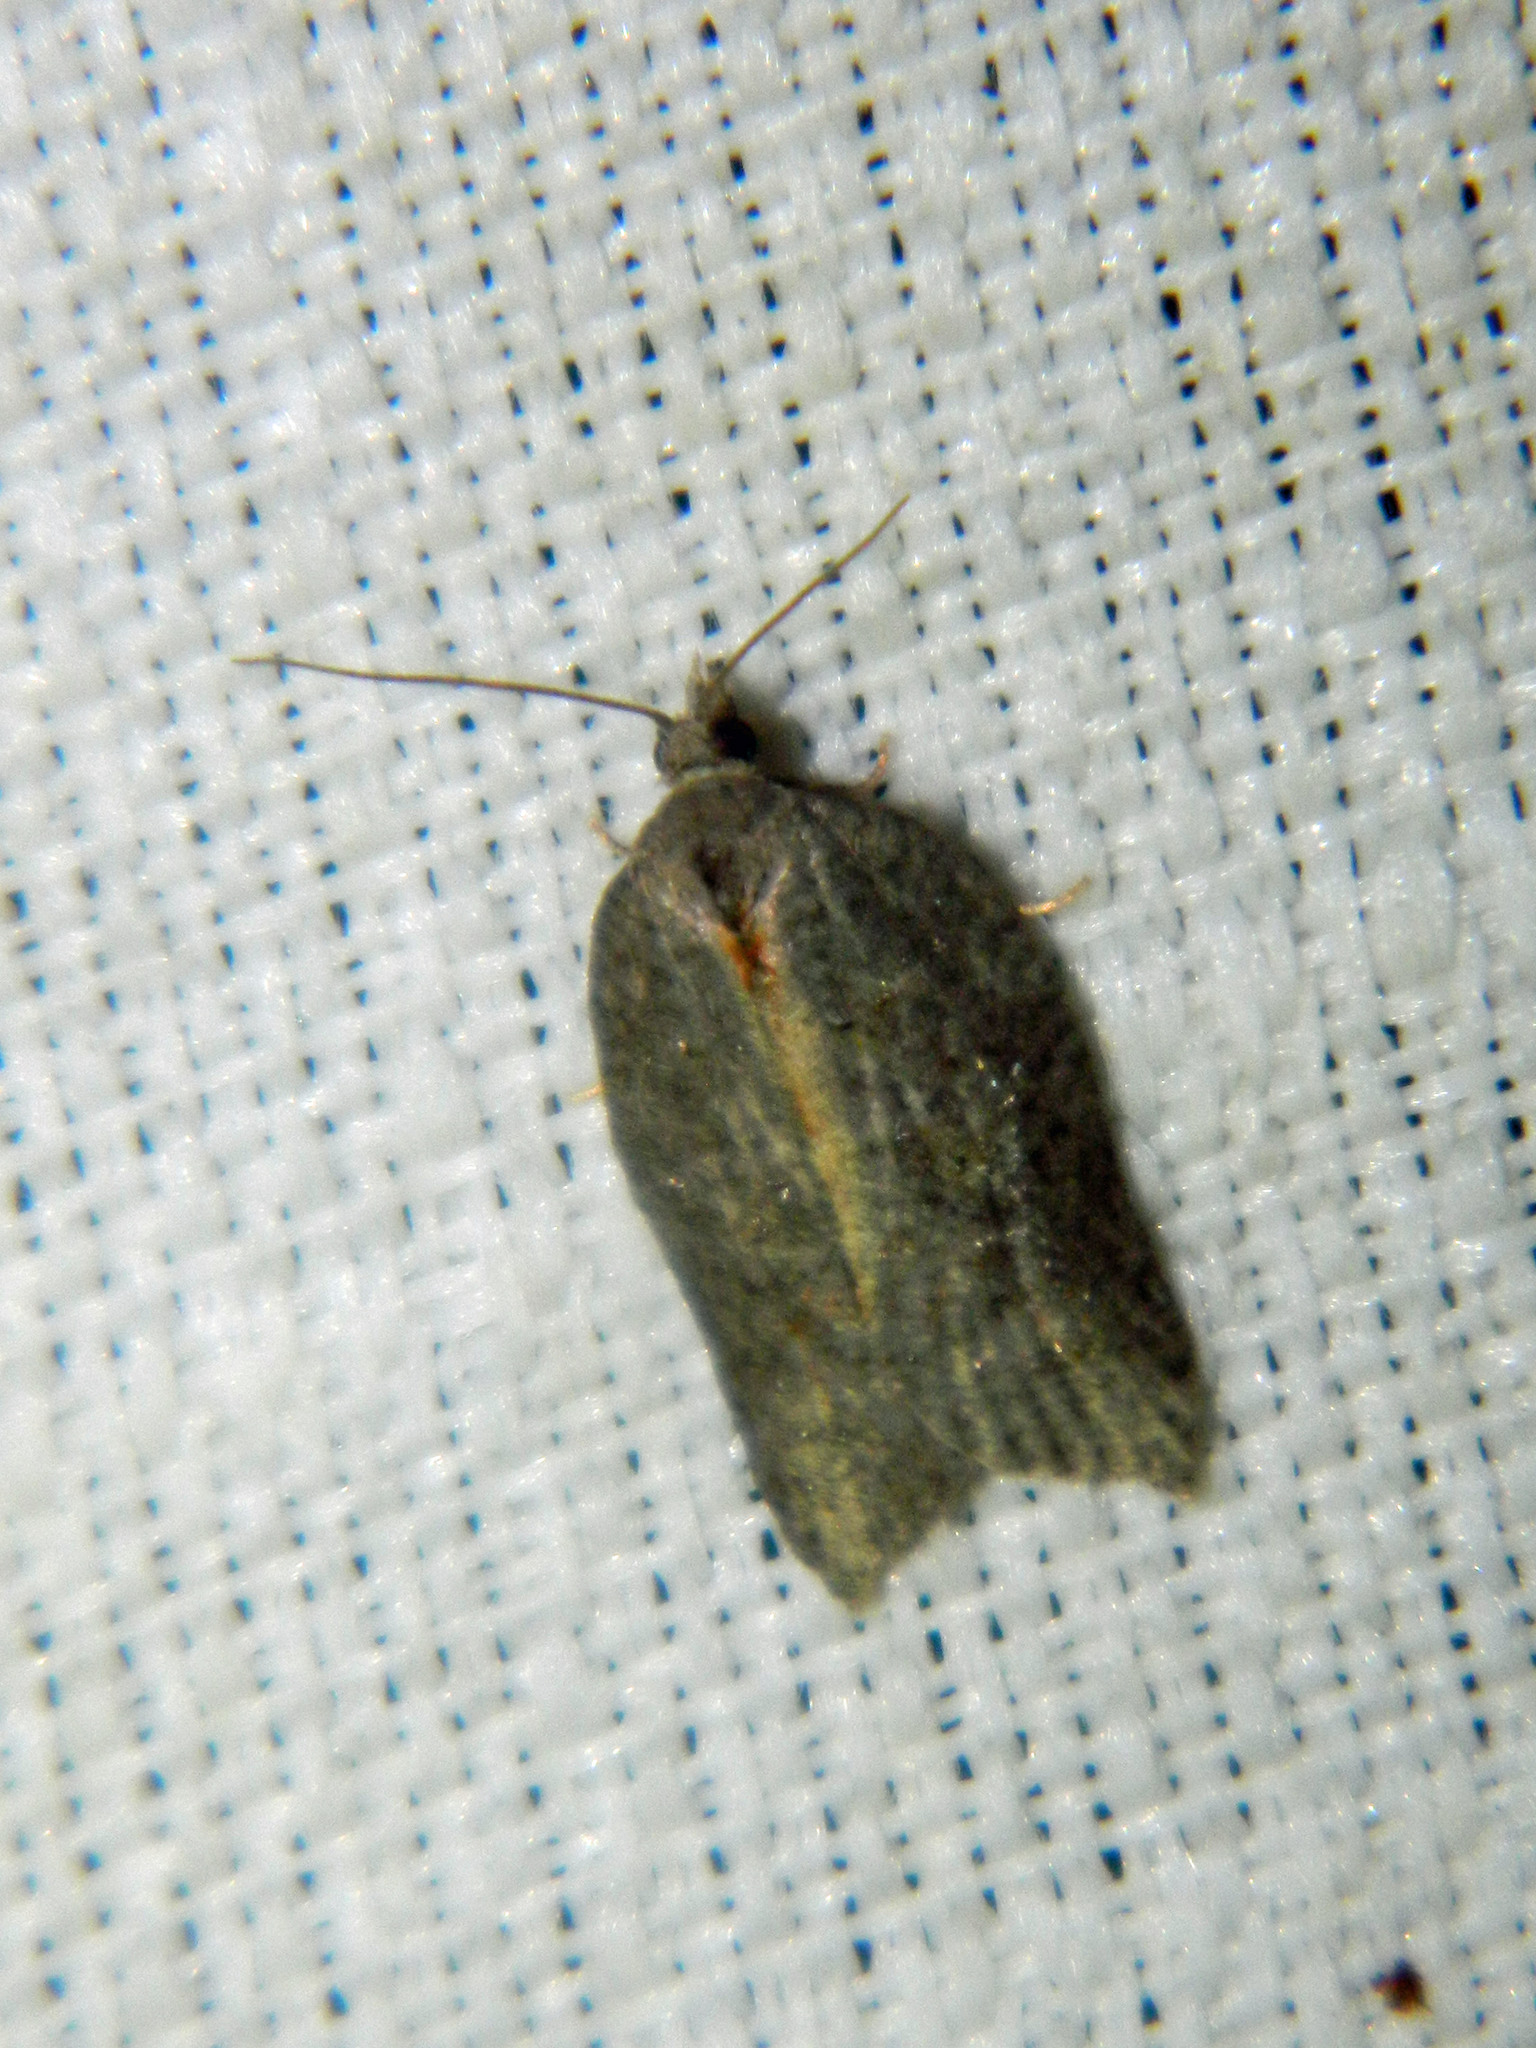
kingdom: Animalia
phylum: Arthropoda
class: Insecta
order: Lepidoptera
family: Tortricidae
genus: Acleris
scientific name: Acleris effractana
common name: Hook-winged tortrix moth
